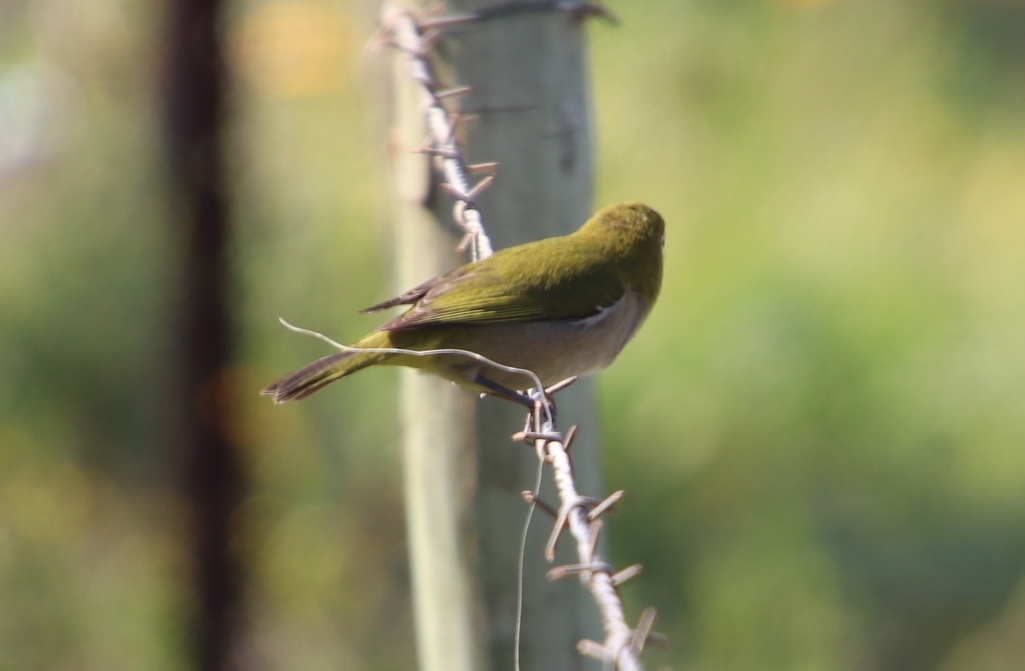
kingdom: Animalia
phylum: Chordata
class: Aves
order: Passeriformes
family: Zosteropidae
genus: Zosterops
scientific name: Zosterops virens
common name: Cape white-eye
